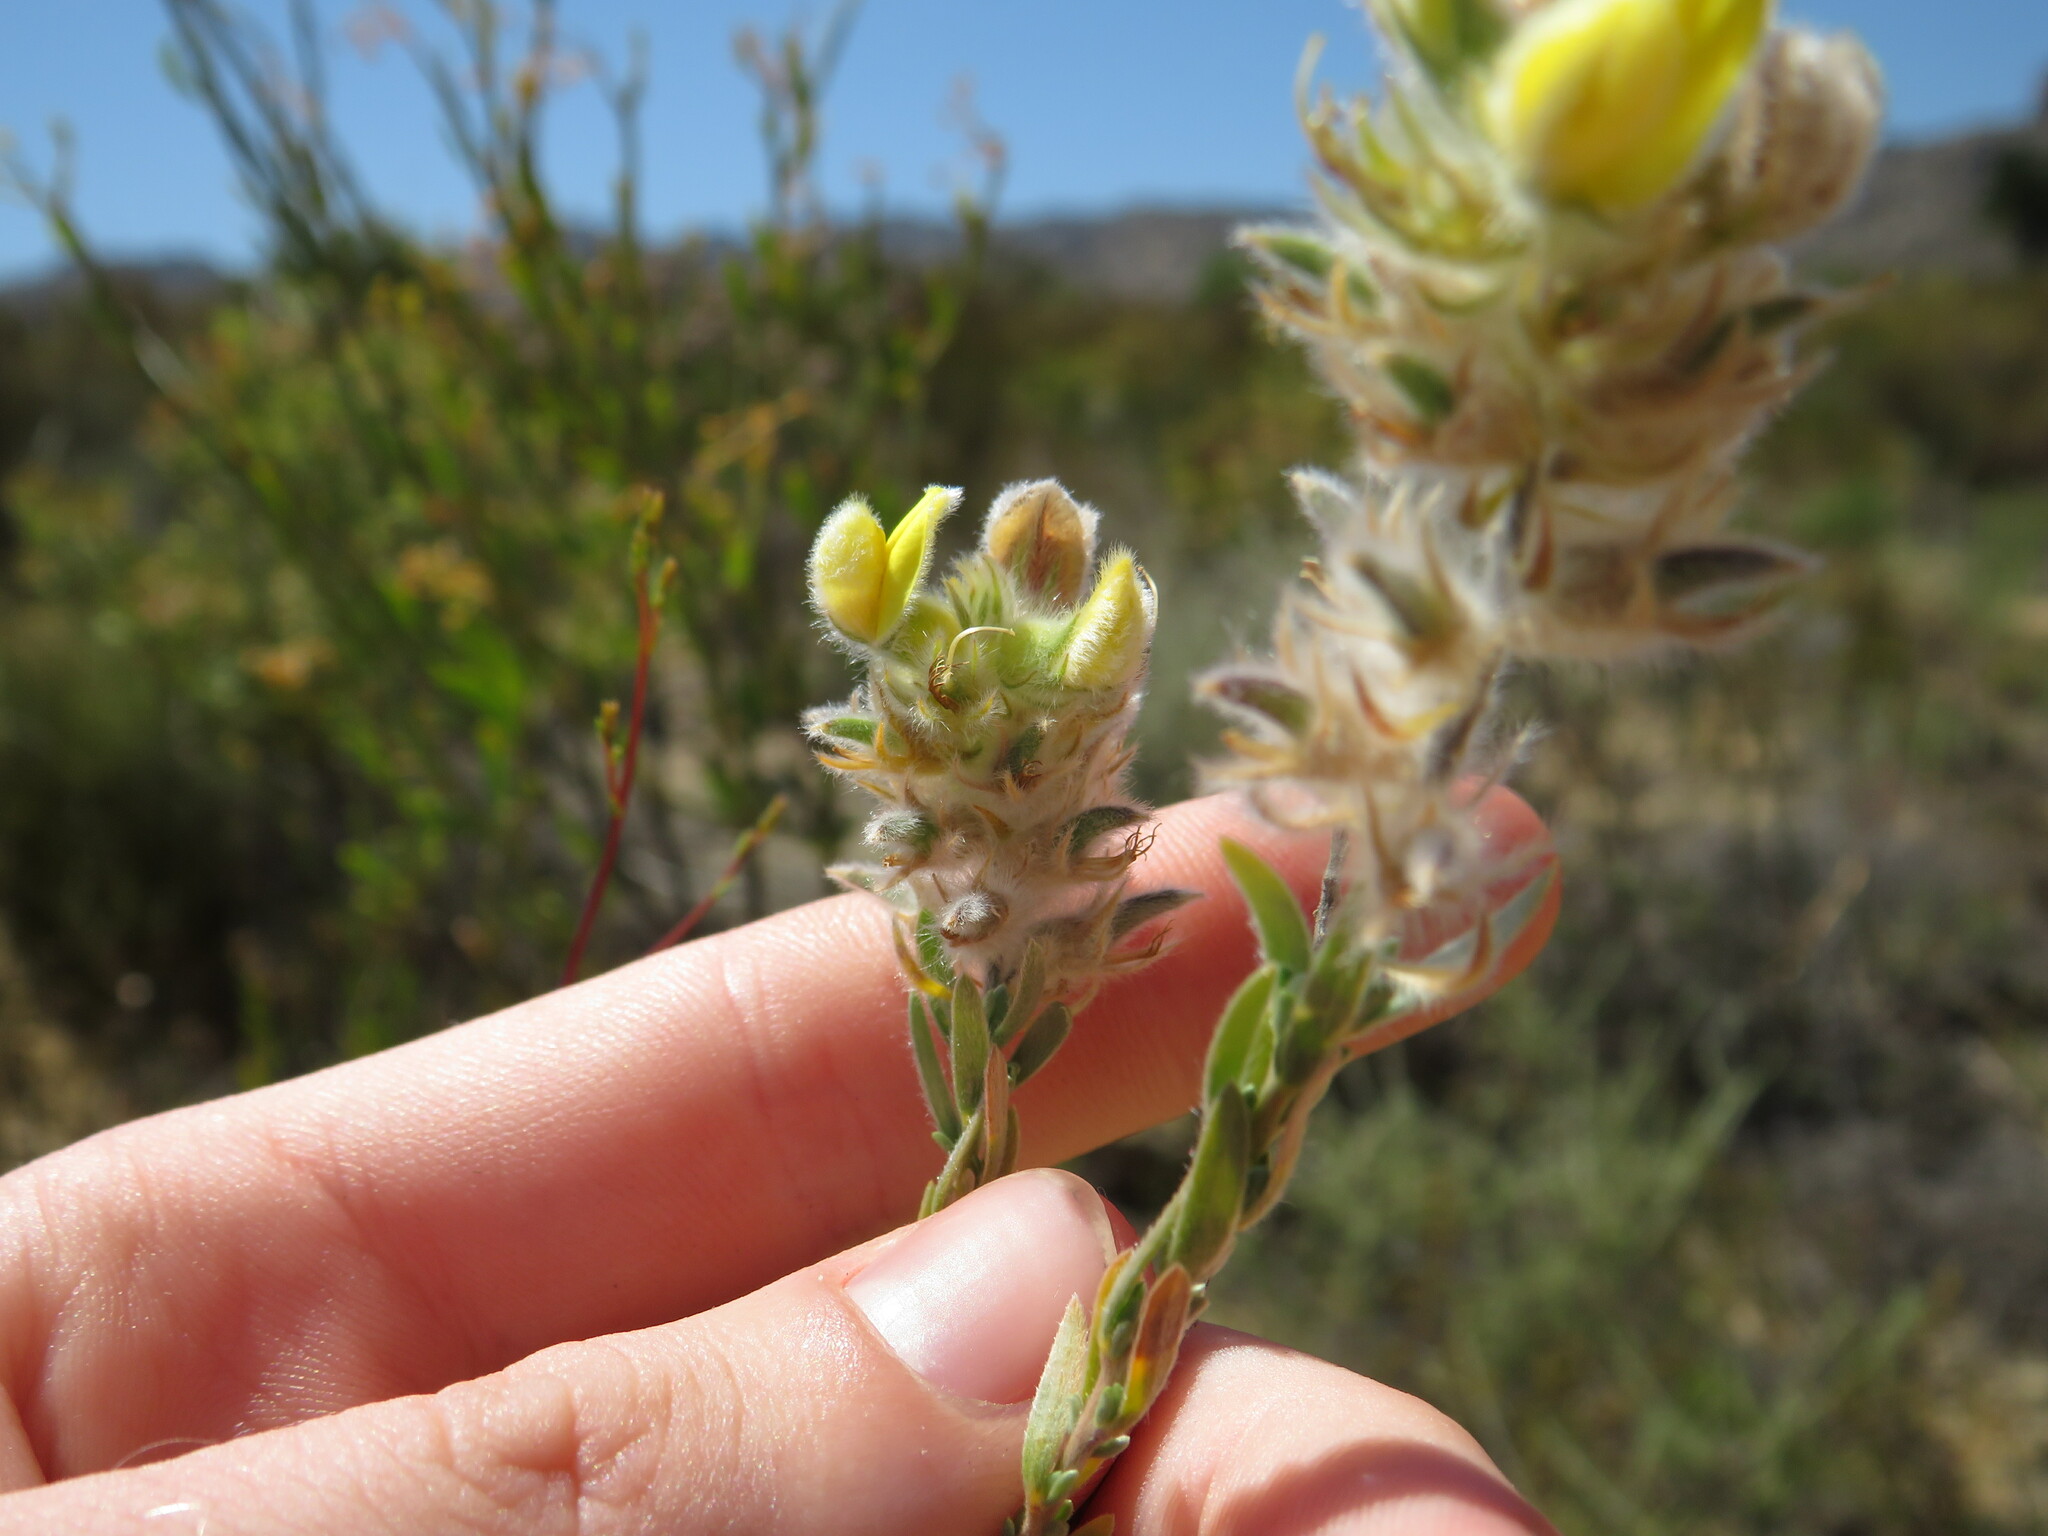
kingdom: Plantae
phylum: Tracheophyta
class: Magnoliopsida
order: Fabales
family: Fabaceae
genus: Aspalathus
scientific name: Aspalathus altissima
